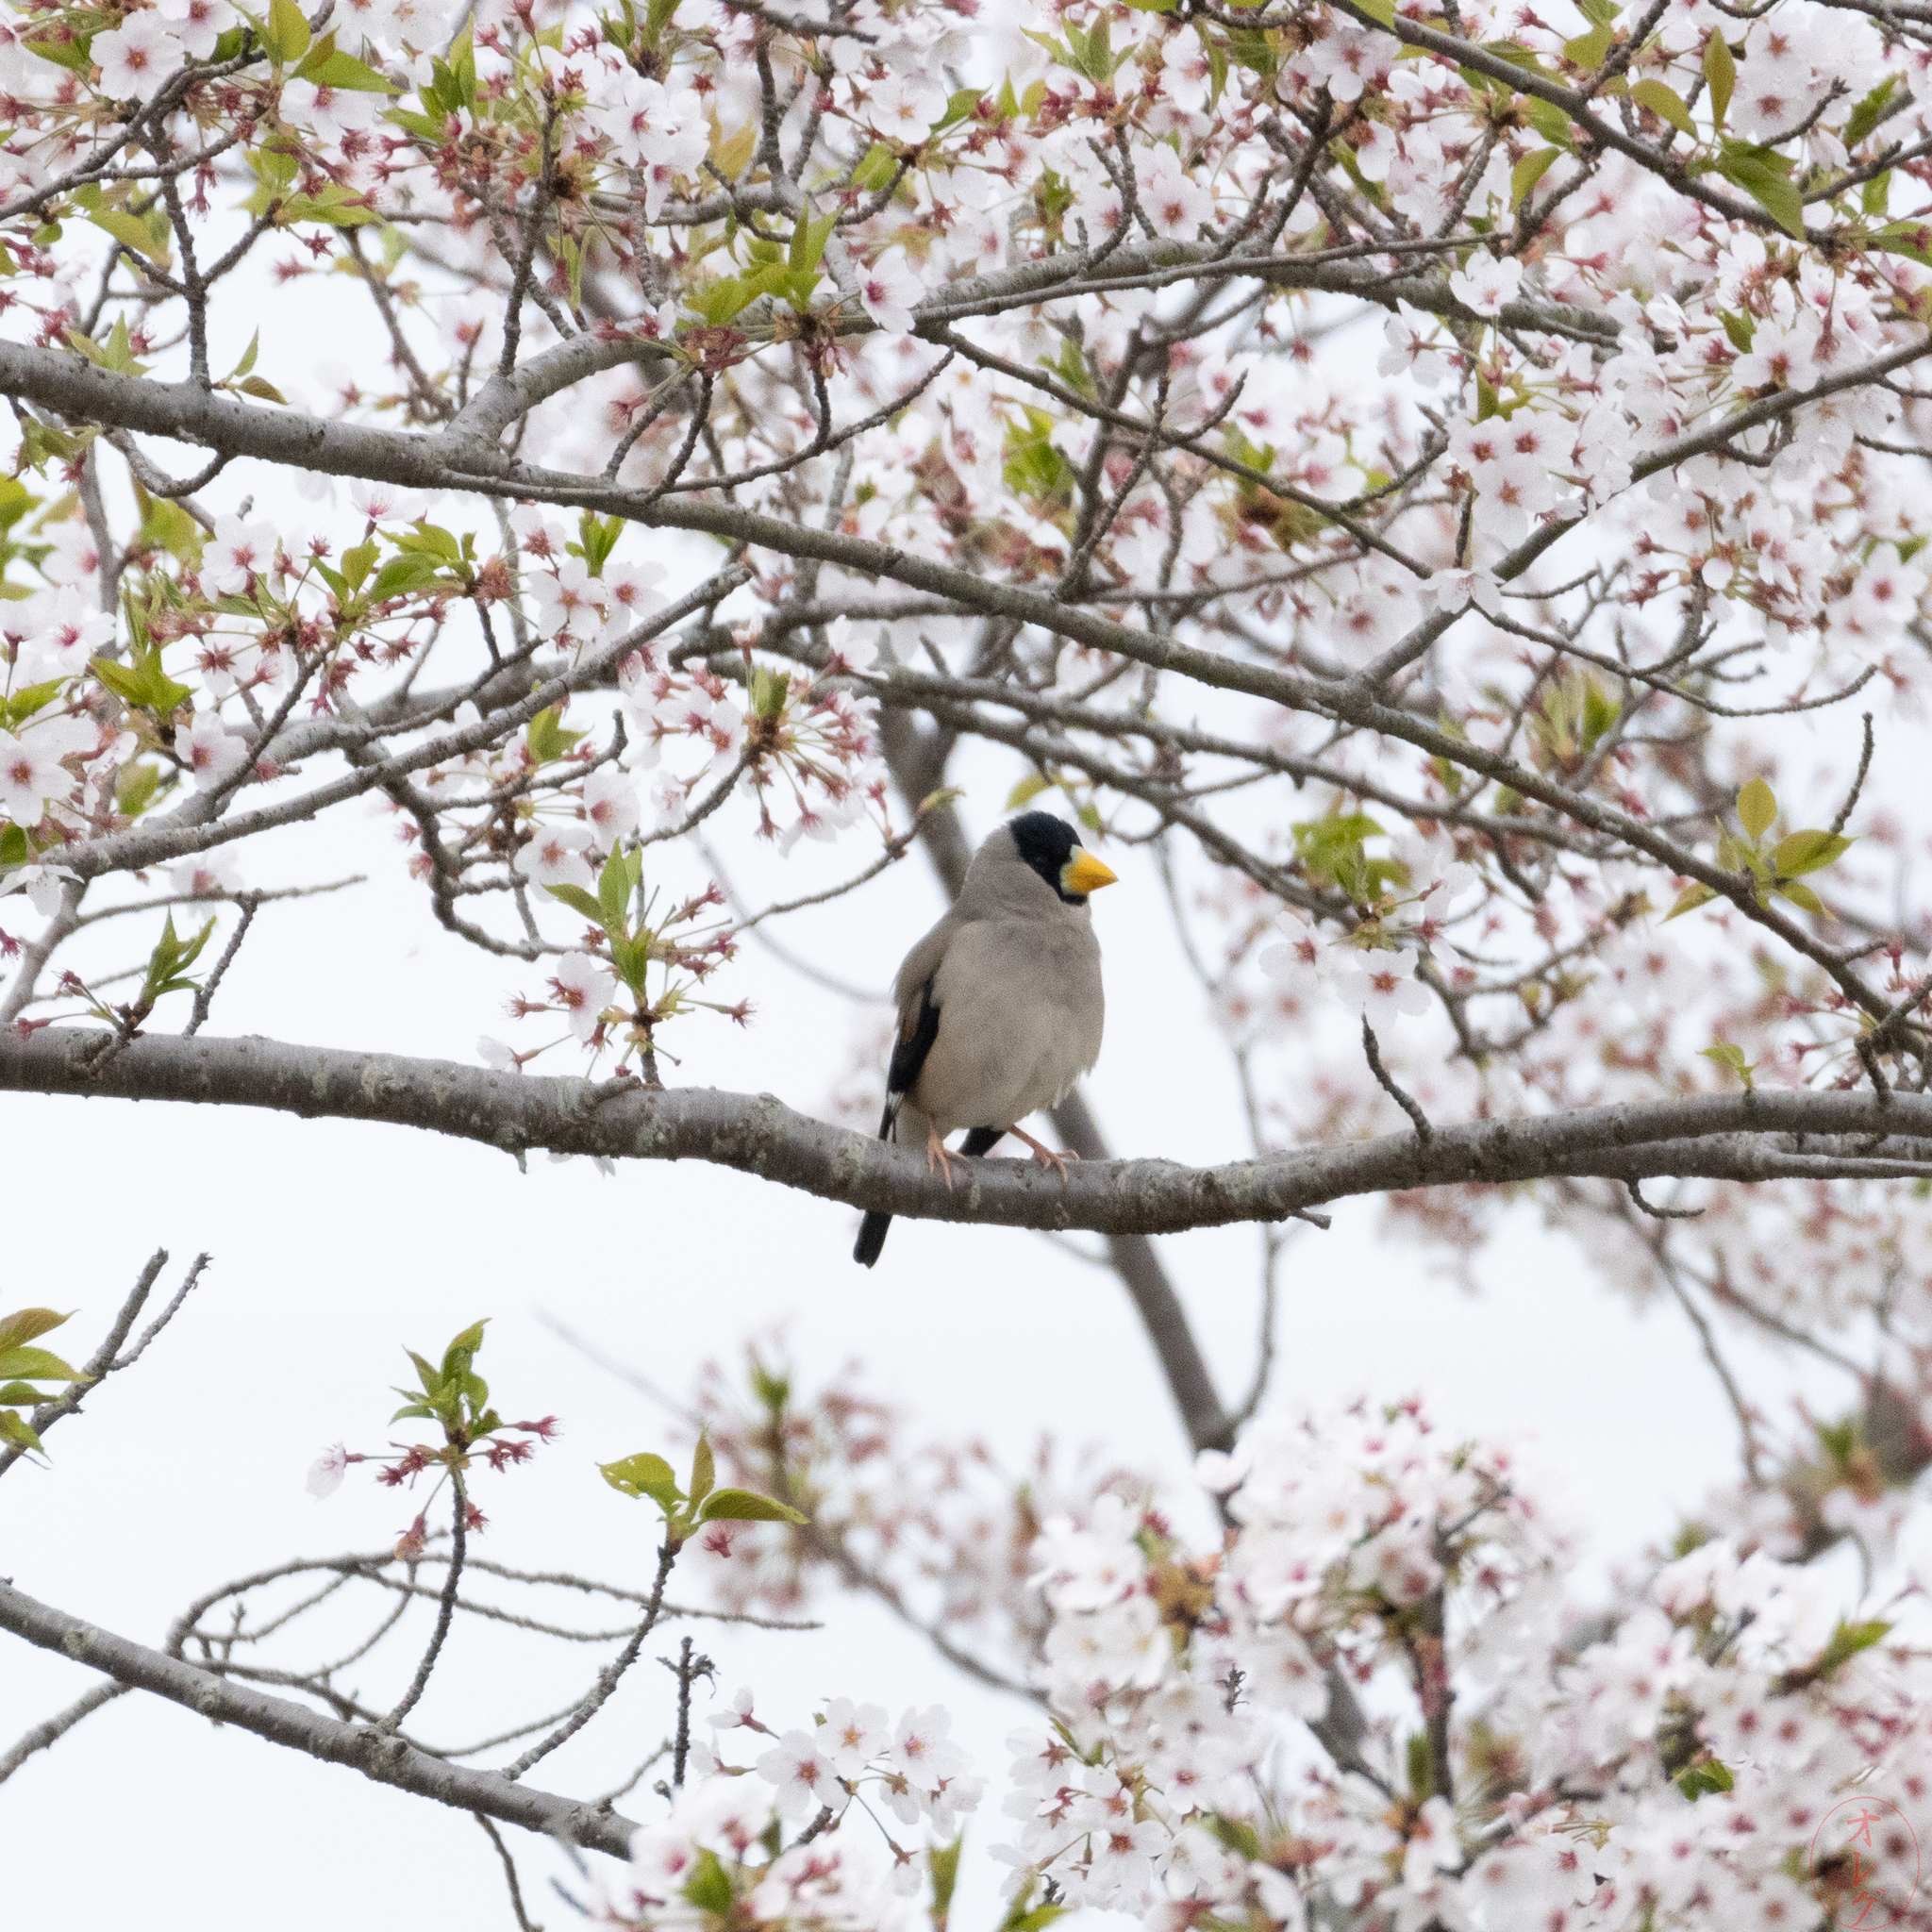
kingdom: Animalia
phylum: Chordata
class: Aves
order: Passeriformes
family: Fringillidae
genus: Eophona
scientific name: Eophona personata
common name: Japanese grosbeak
